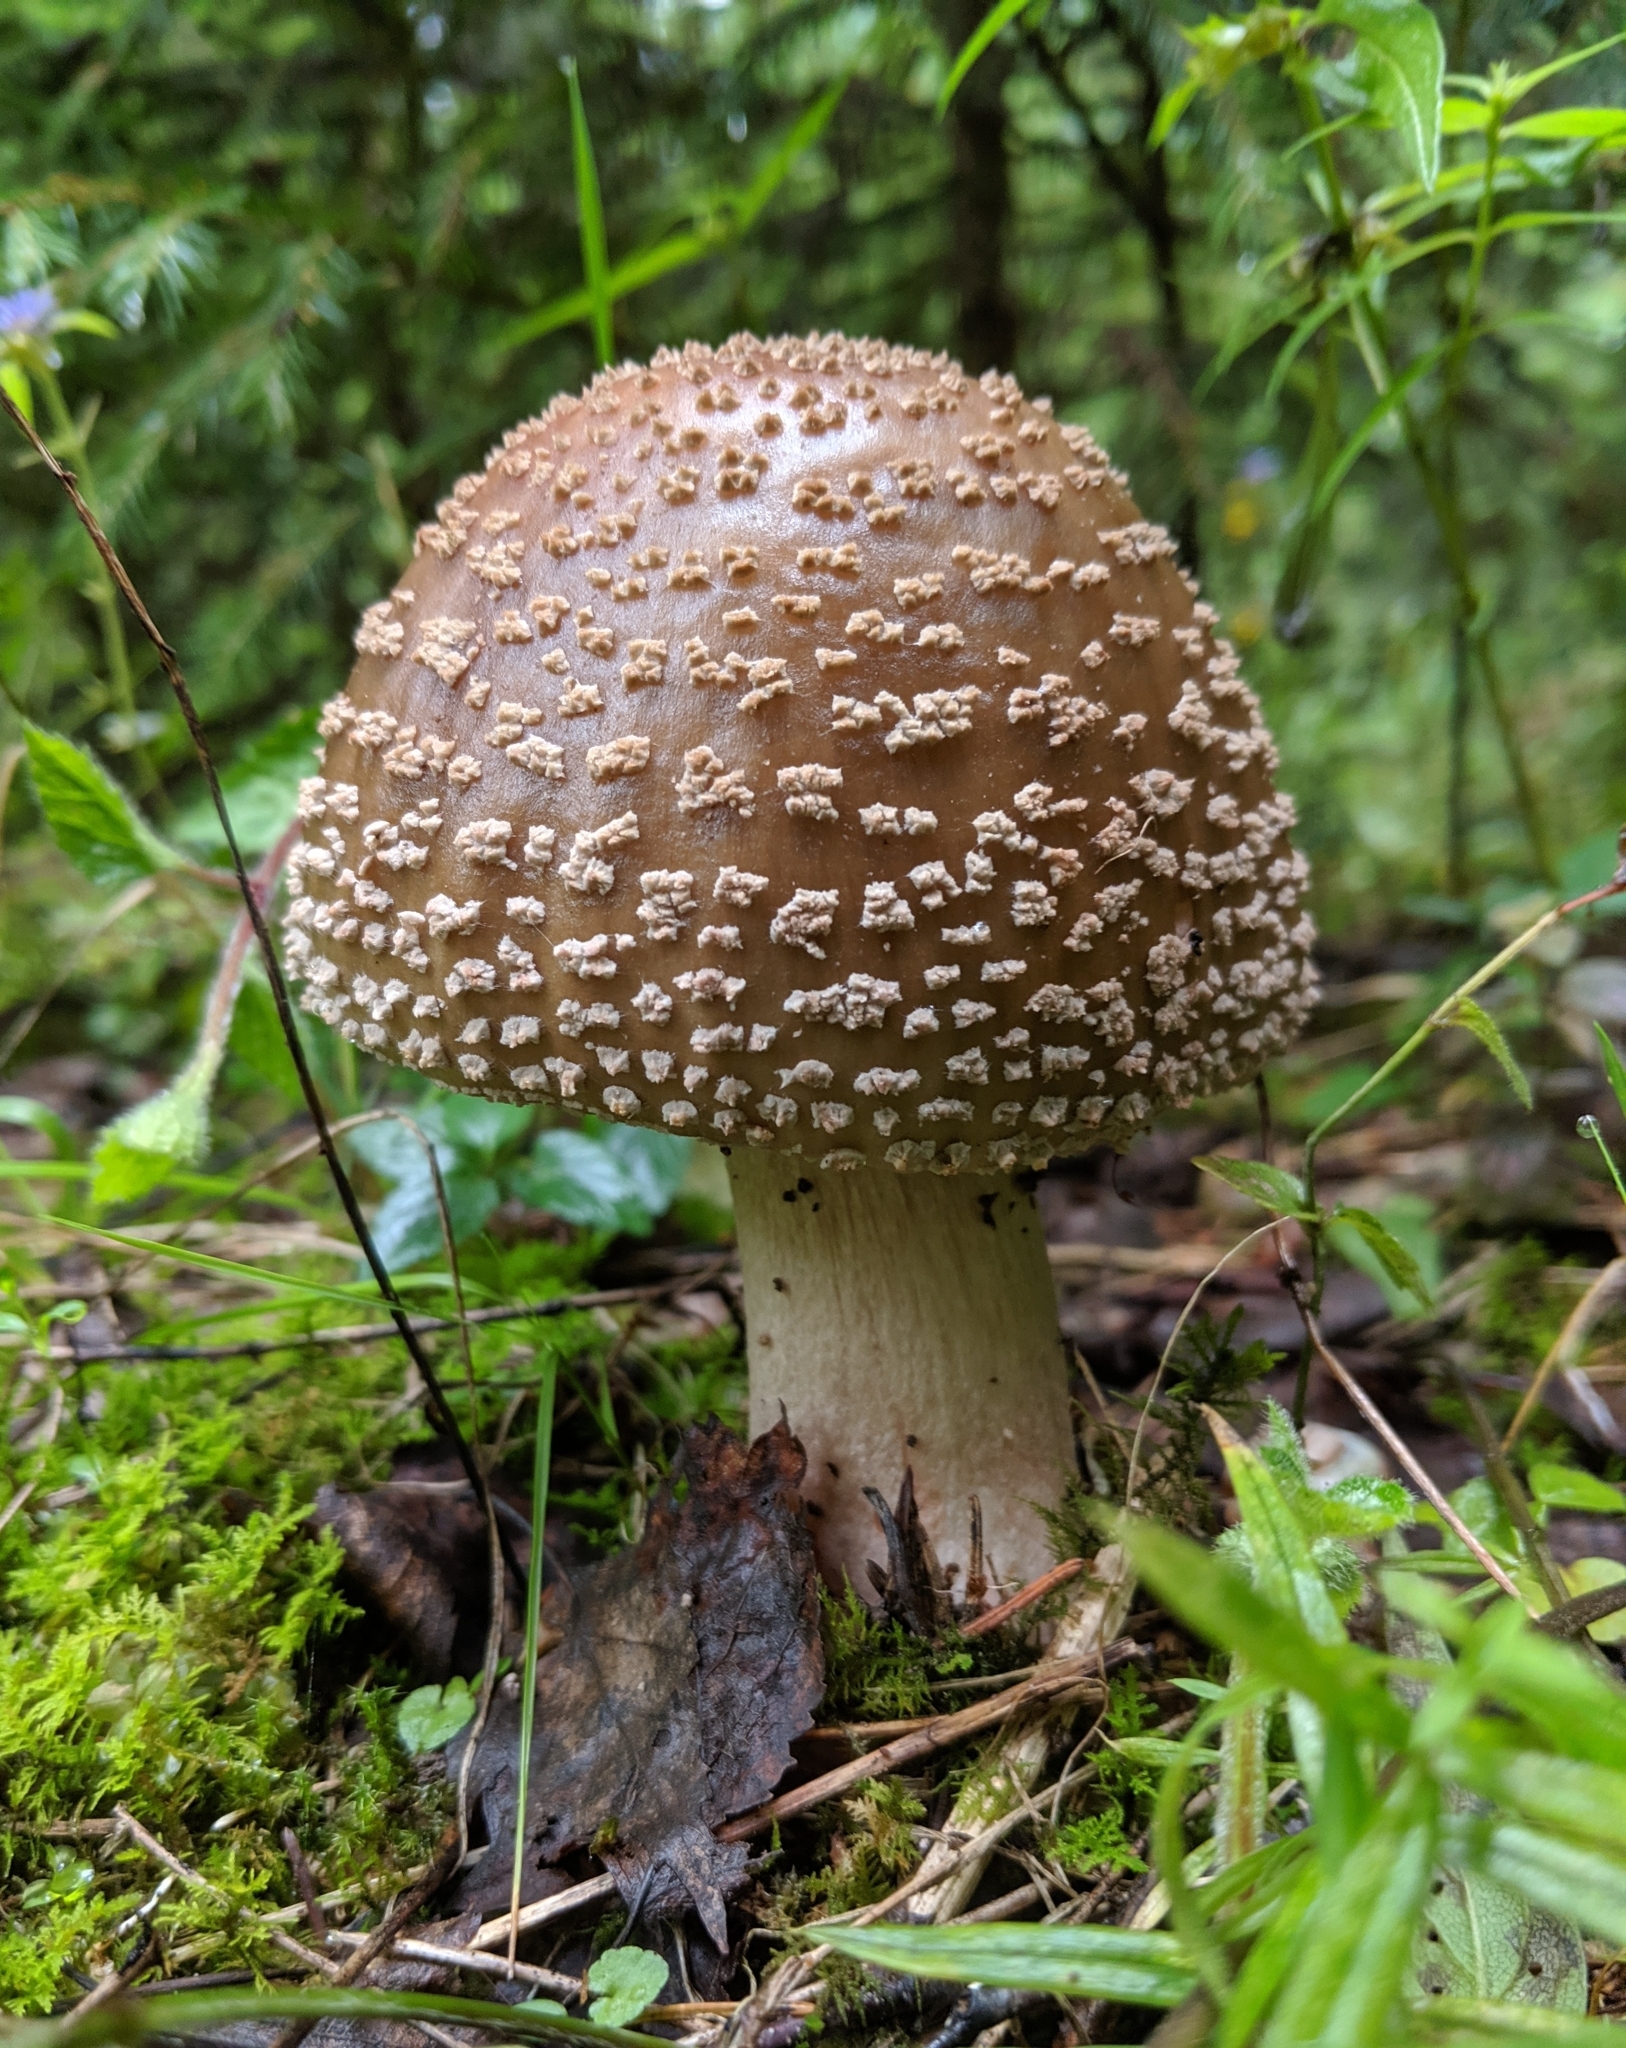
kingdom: Fungi
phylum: Basidiomycota
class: Agaricomycetes
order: Agaricales
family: Amanitaceae
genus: Amanita
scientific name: Amanita rubescens
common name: Blusher
